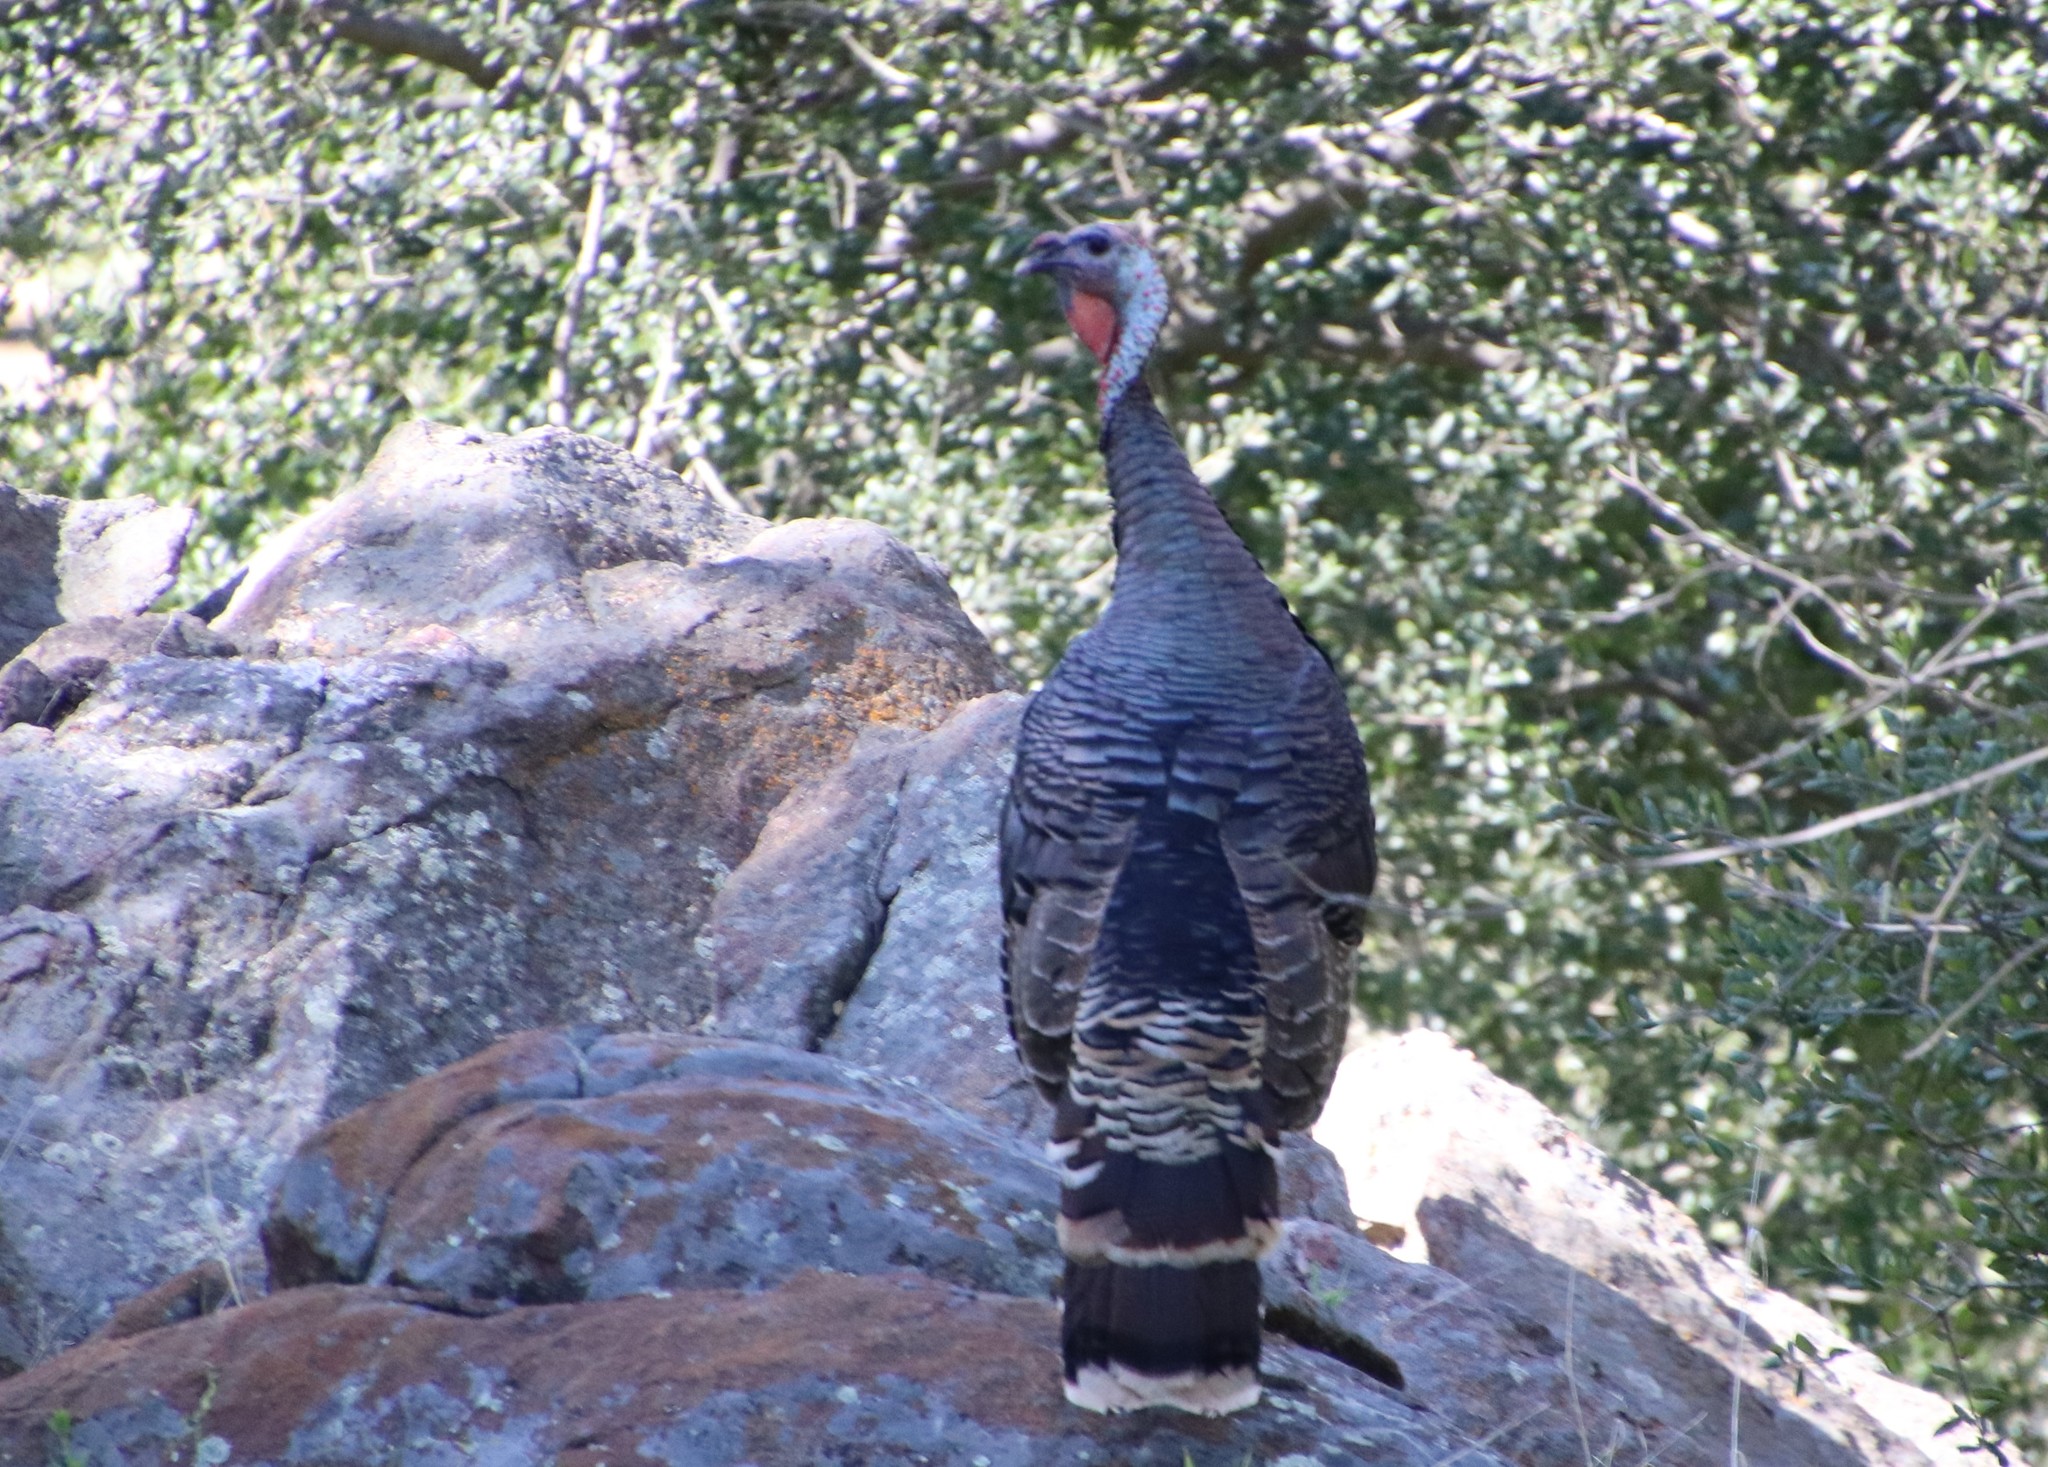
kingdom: Animalia
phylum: Chordata
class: Aves
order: Galliformes
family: Phasianidae
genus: Meleagris
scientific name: Meleagris gallopavo
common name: Wild turkey
